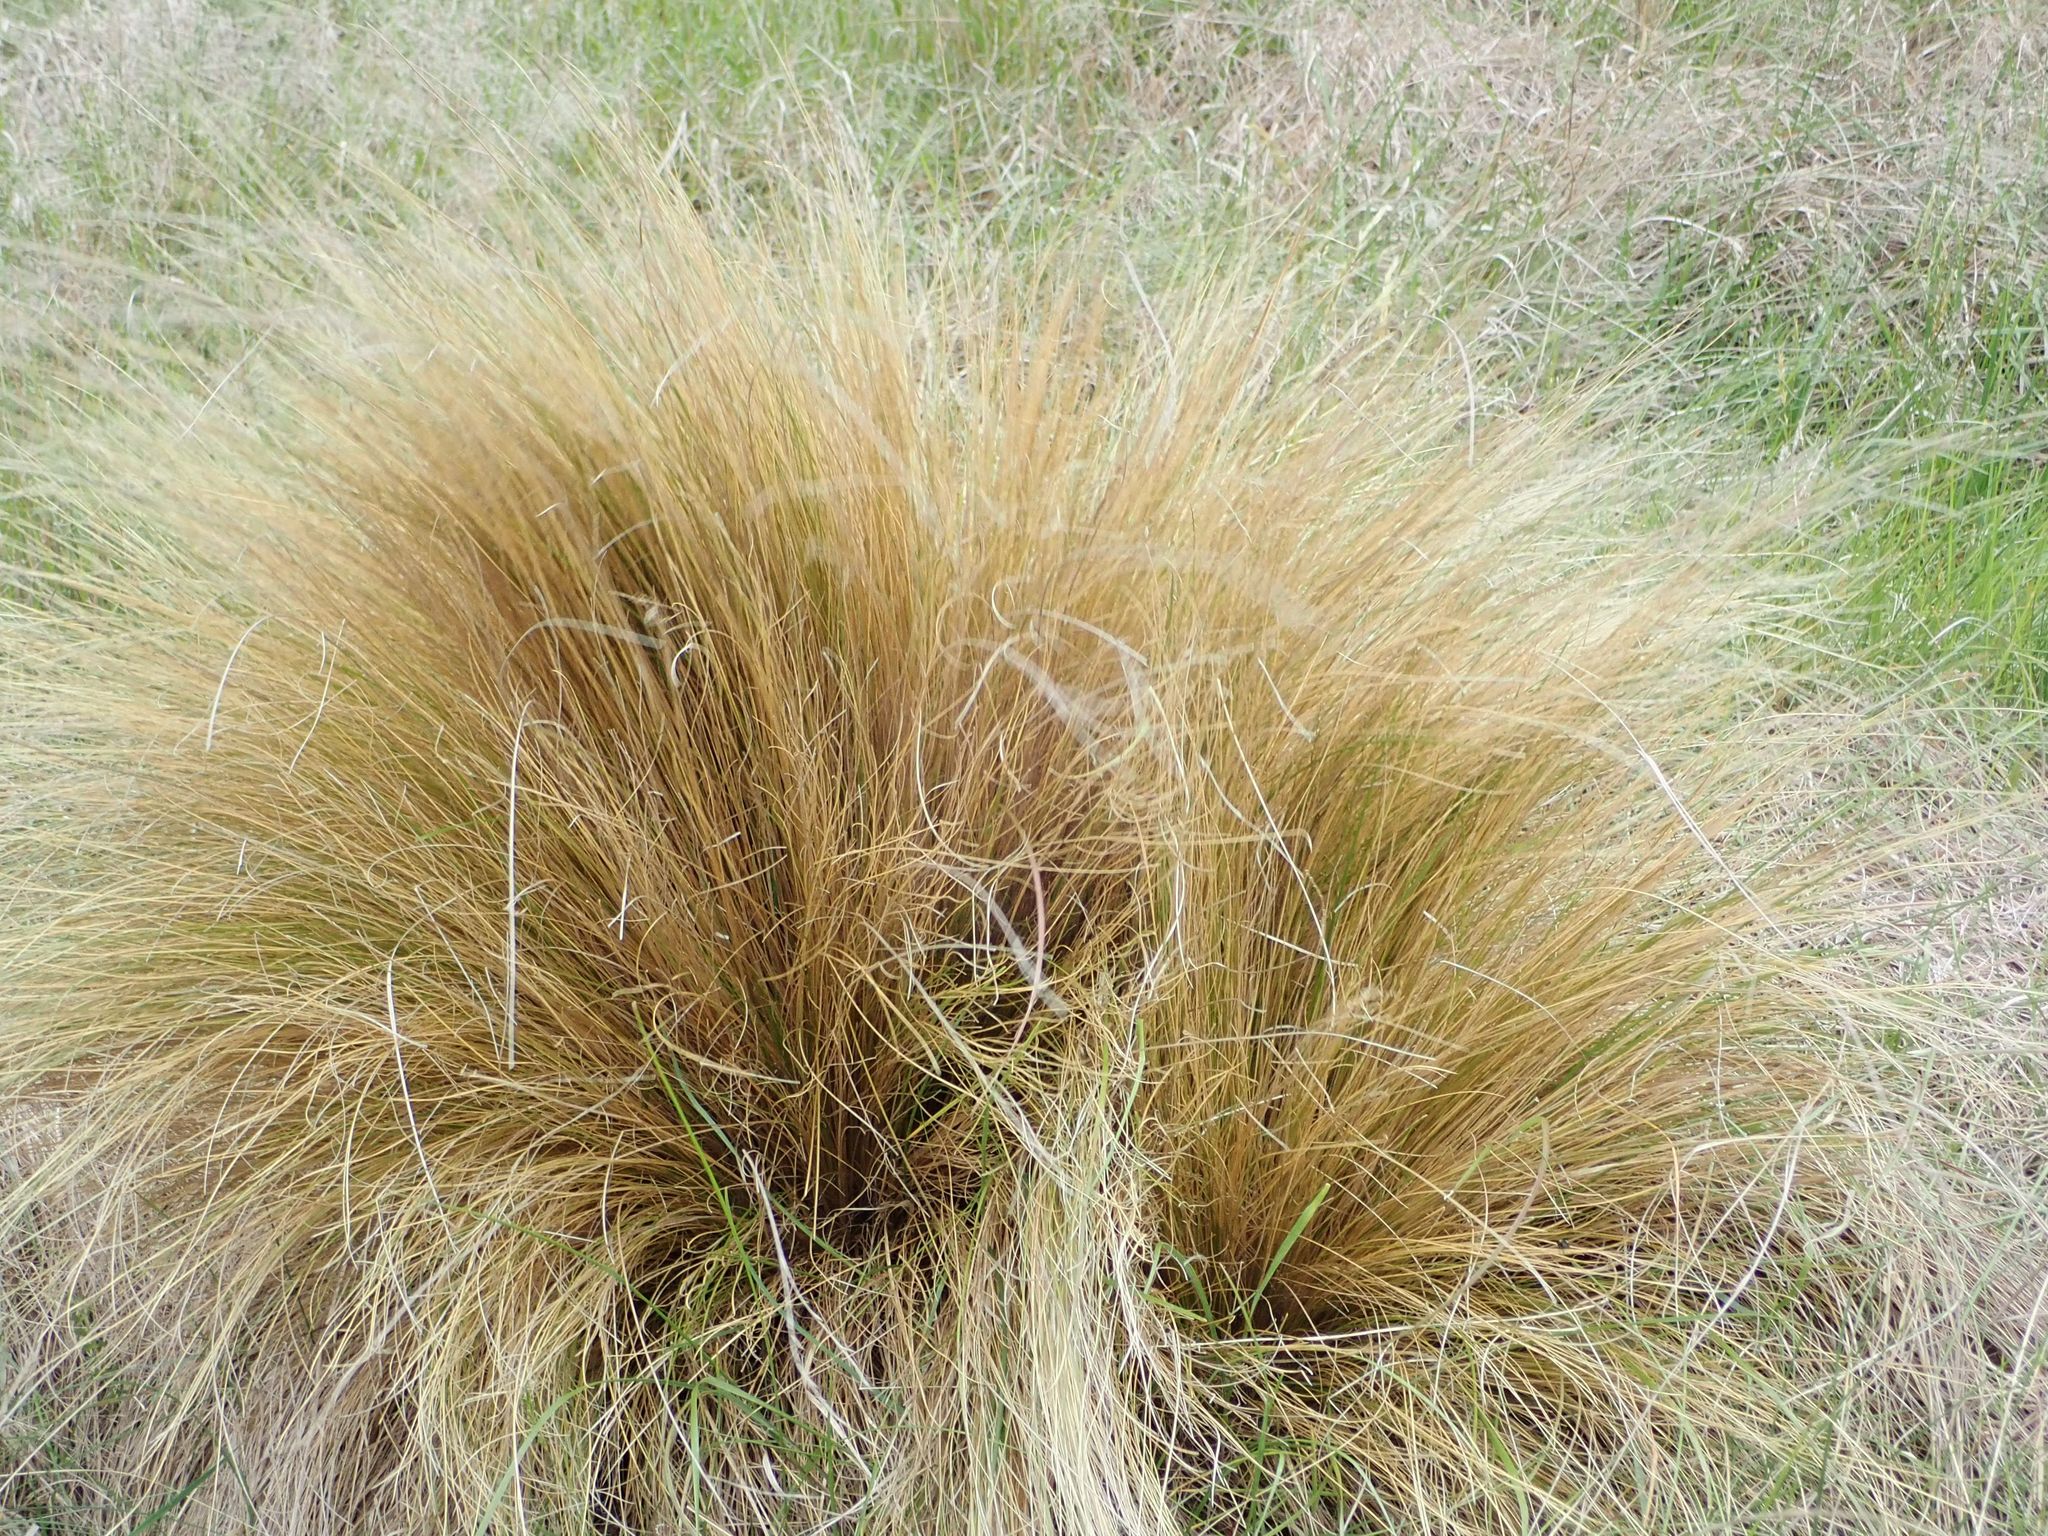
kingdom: Plantae
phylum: Tracheophyta
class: Liliopsida
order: Poales
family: Poaceae
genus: Festuca
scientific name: Festuca novae-zelandiae
